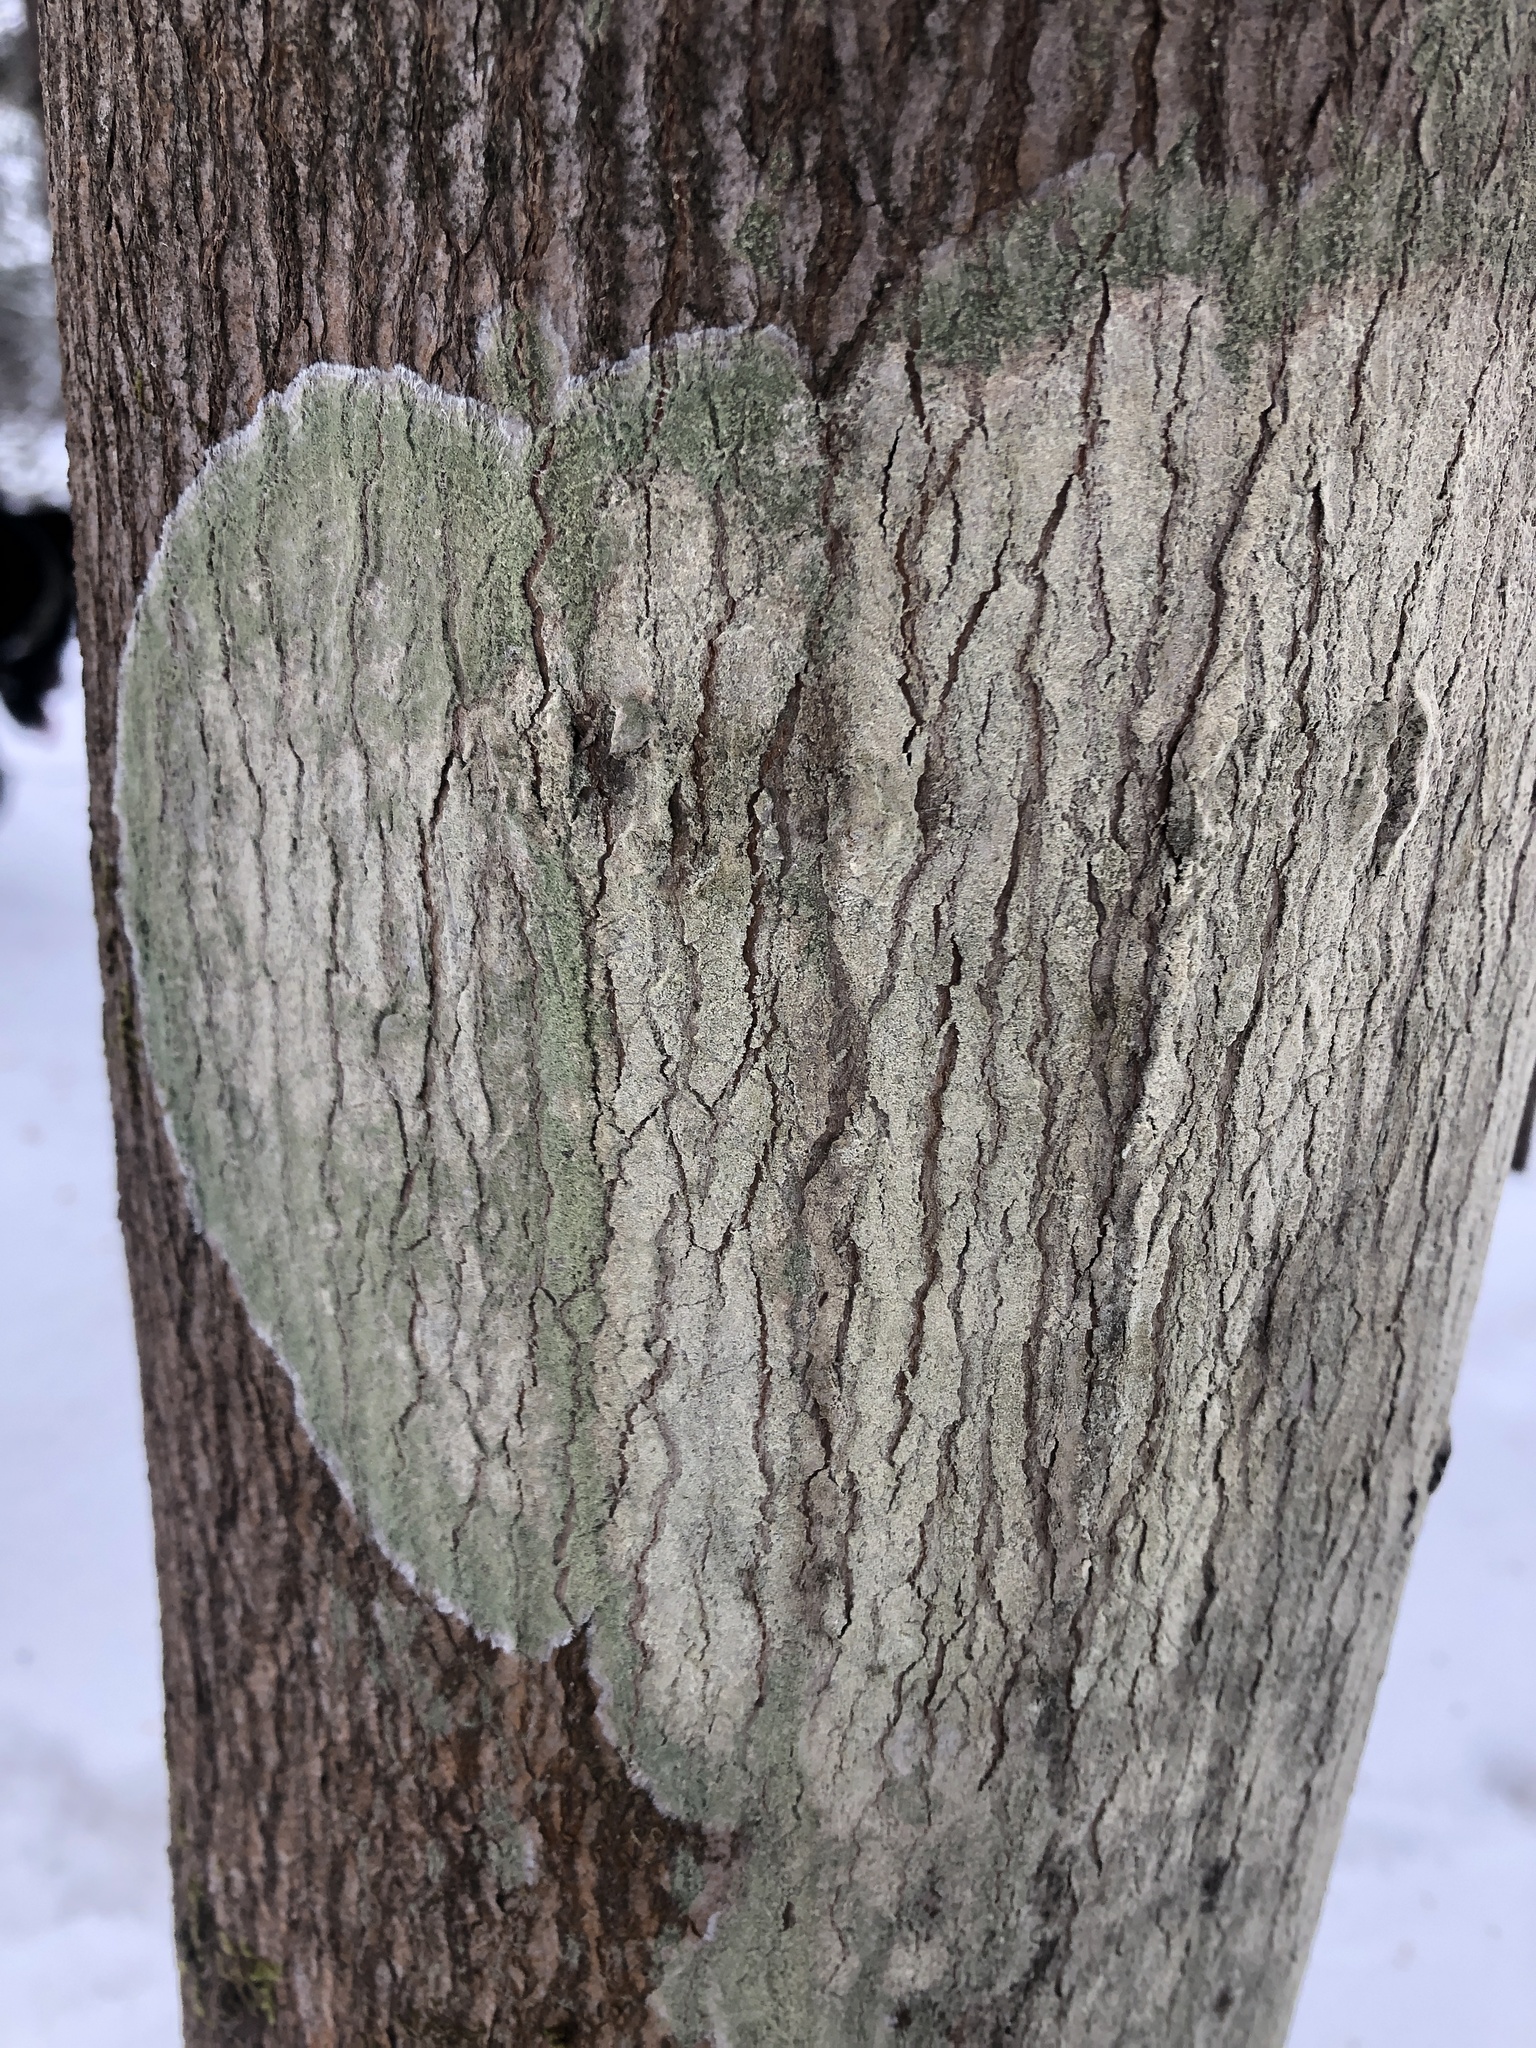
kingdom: Fungi
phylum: Ascomycota
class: Lecanoromycetes
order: Pertusariales
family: Pertusariaceae
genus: Verseghya
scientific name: Verseghya thysanophora
